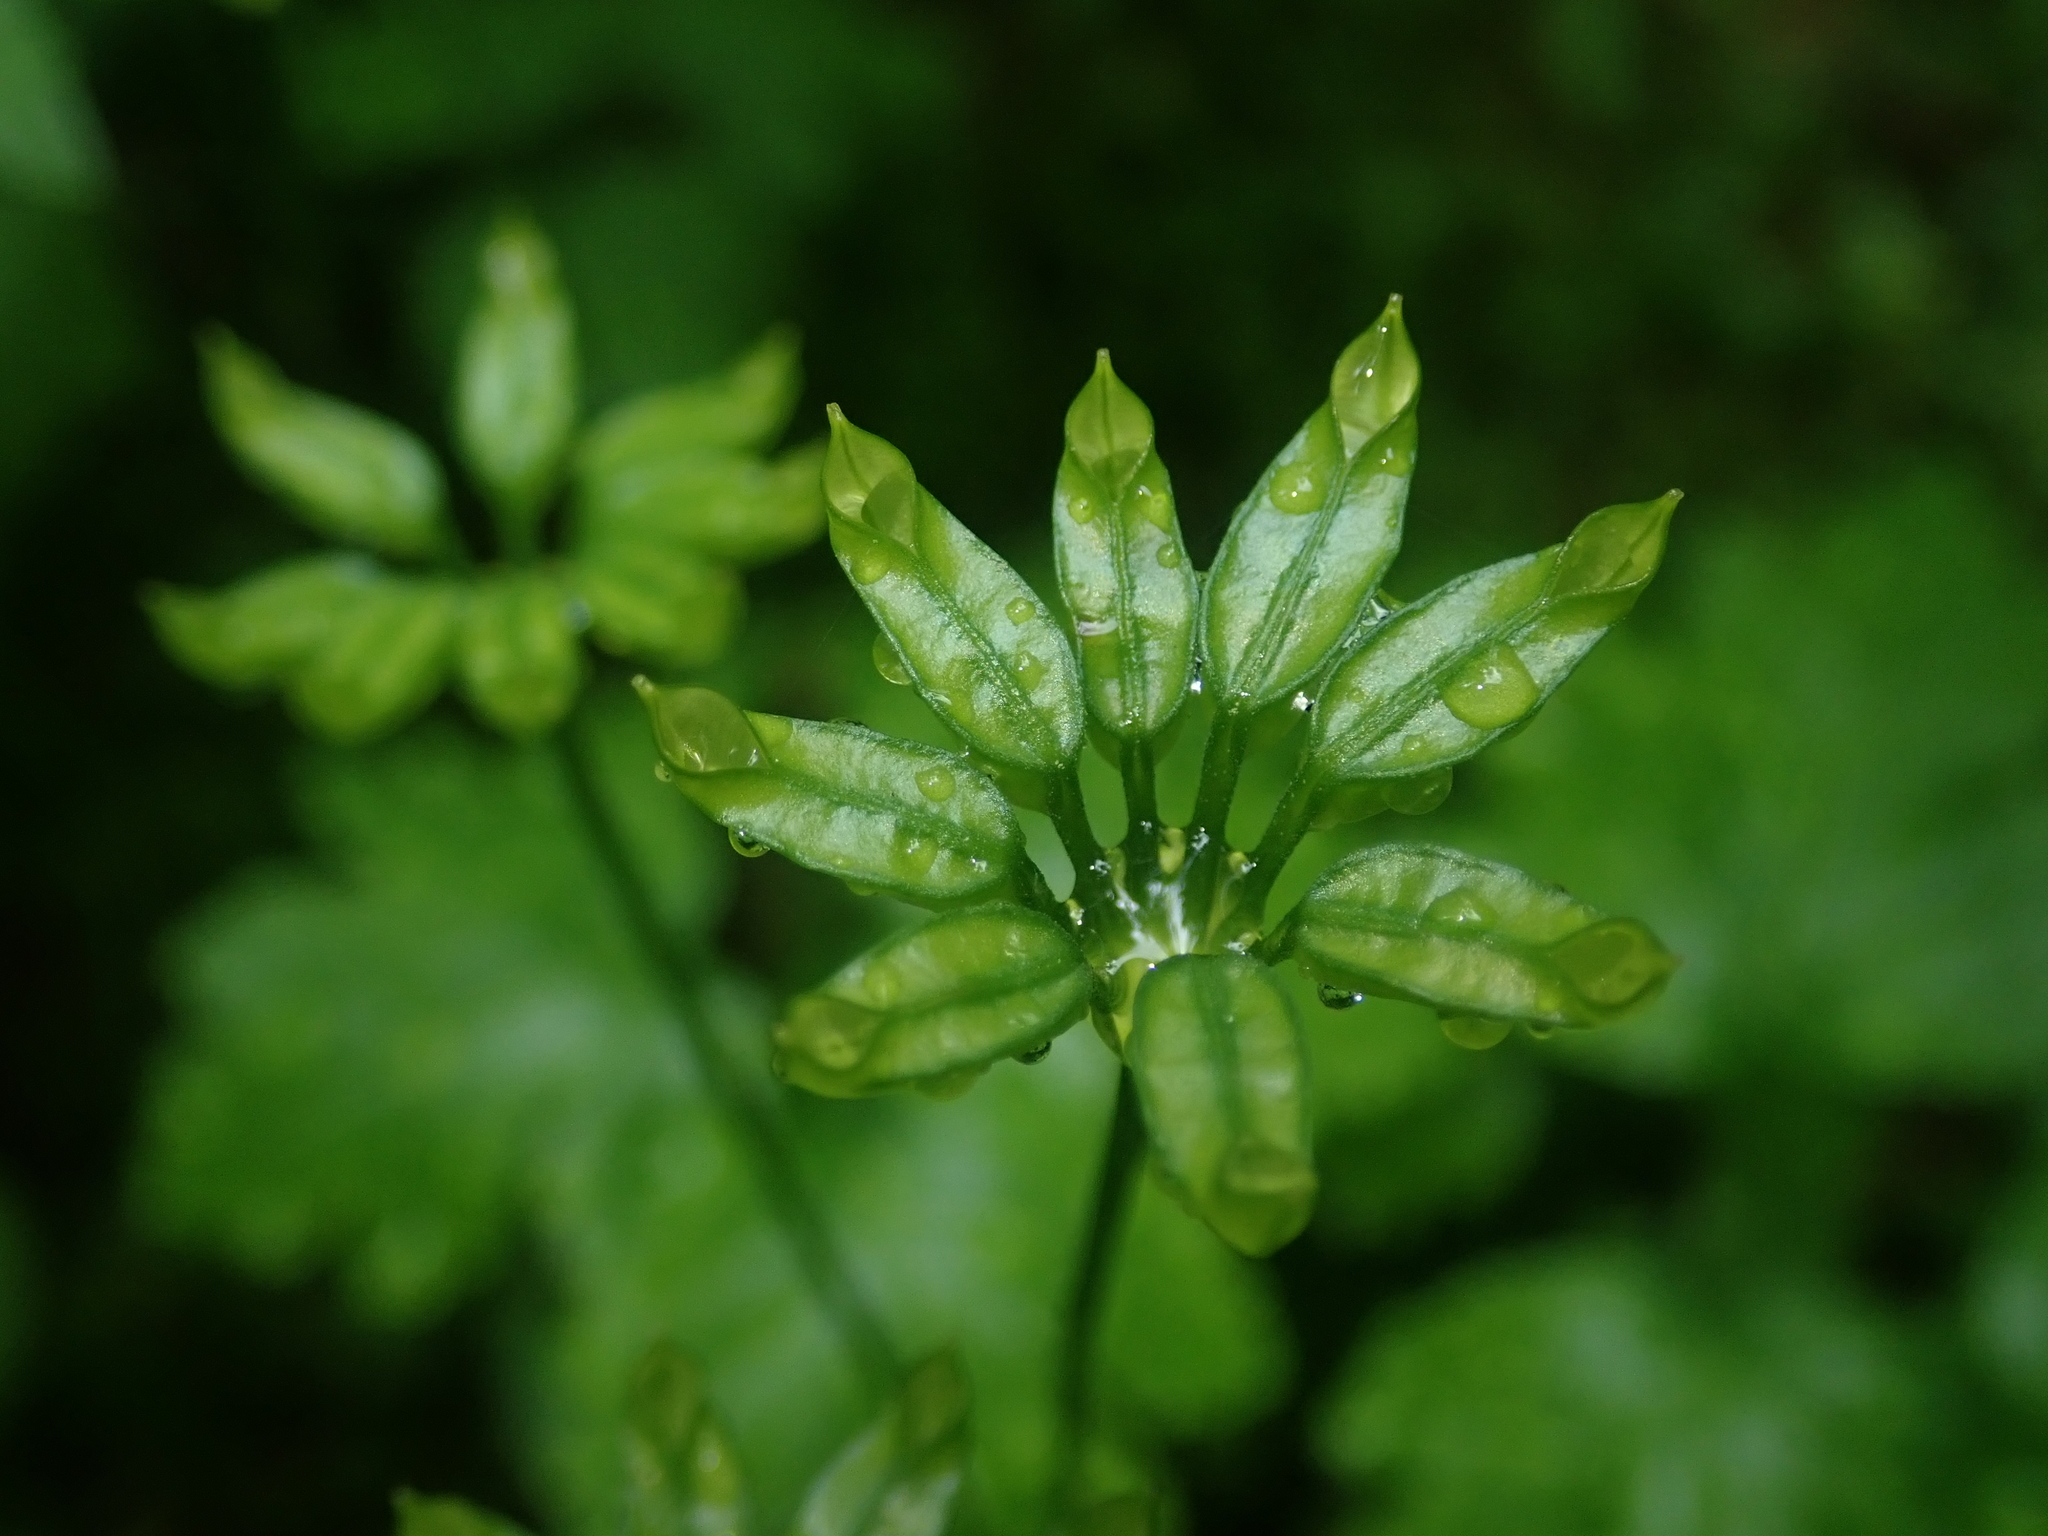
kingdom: Plantae
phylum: Tracheophyta
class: Magnoliopsida
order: Ranunculales
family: Ranunculaceae
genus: Coptis
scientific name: Coptis occidentalis
